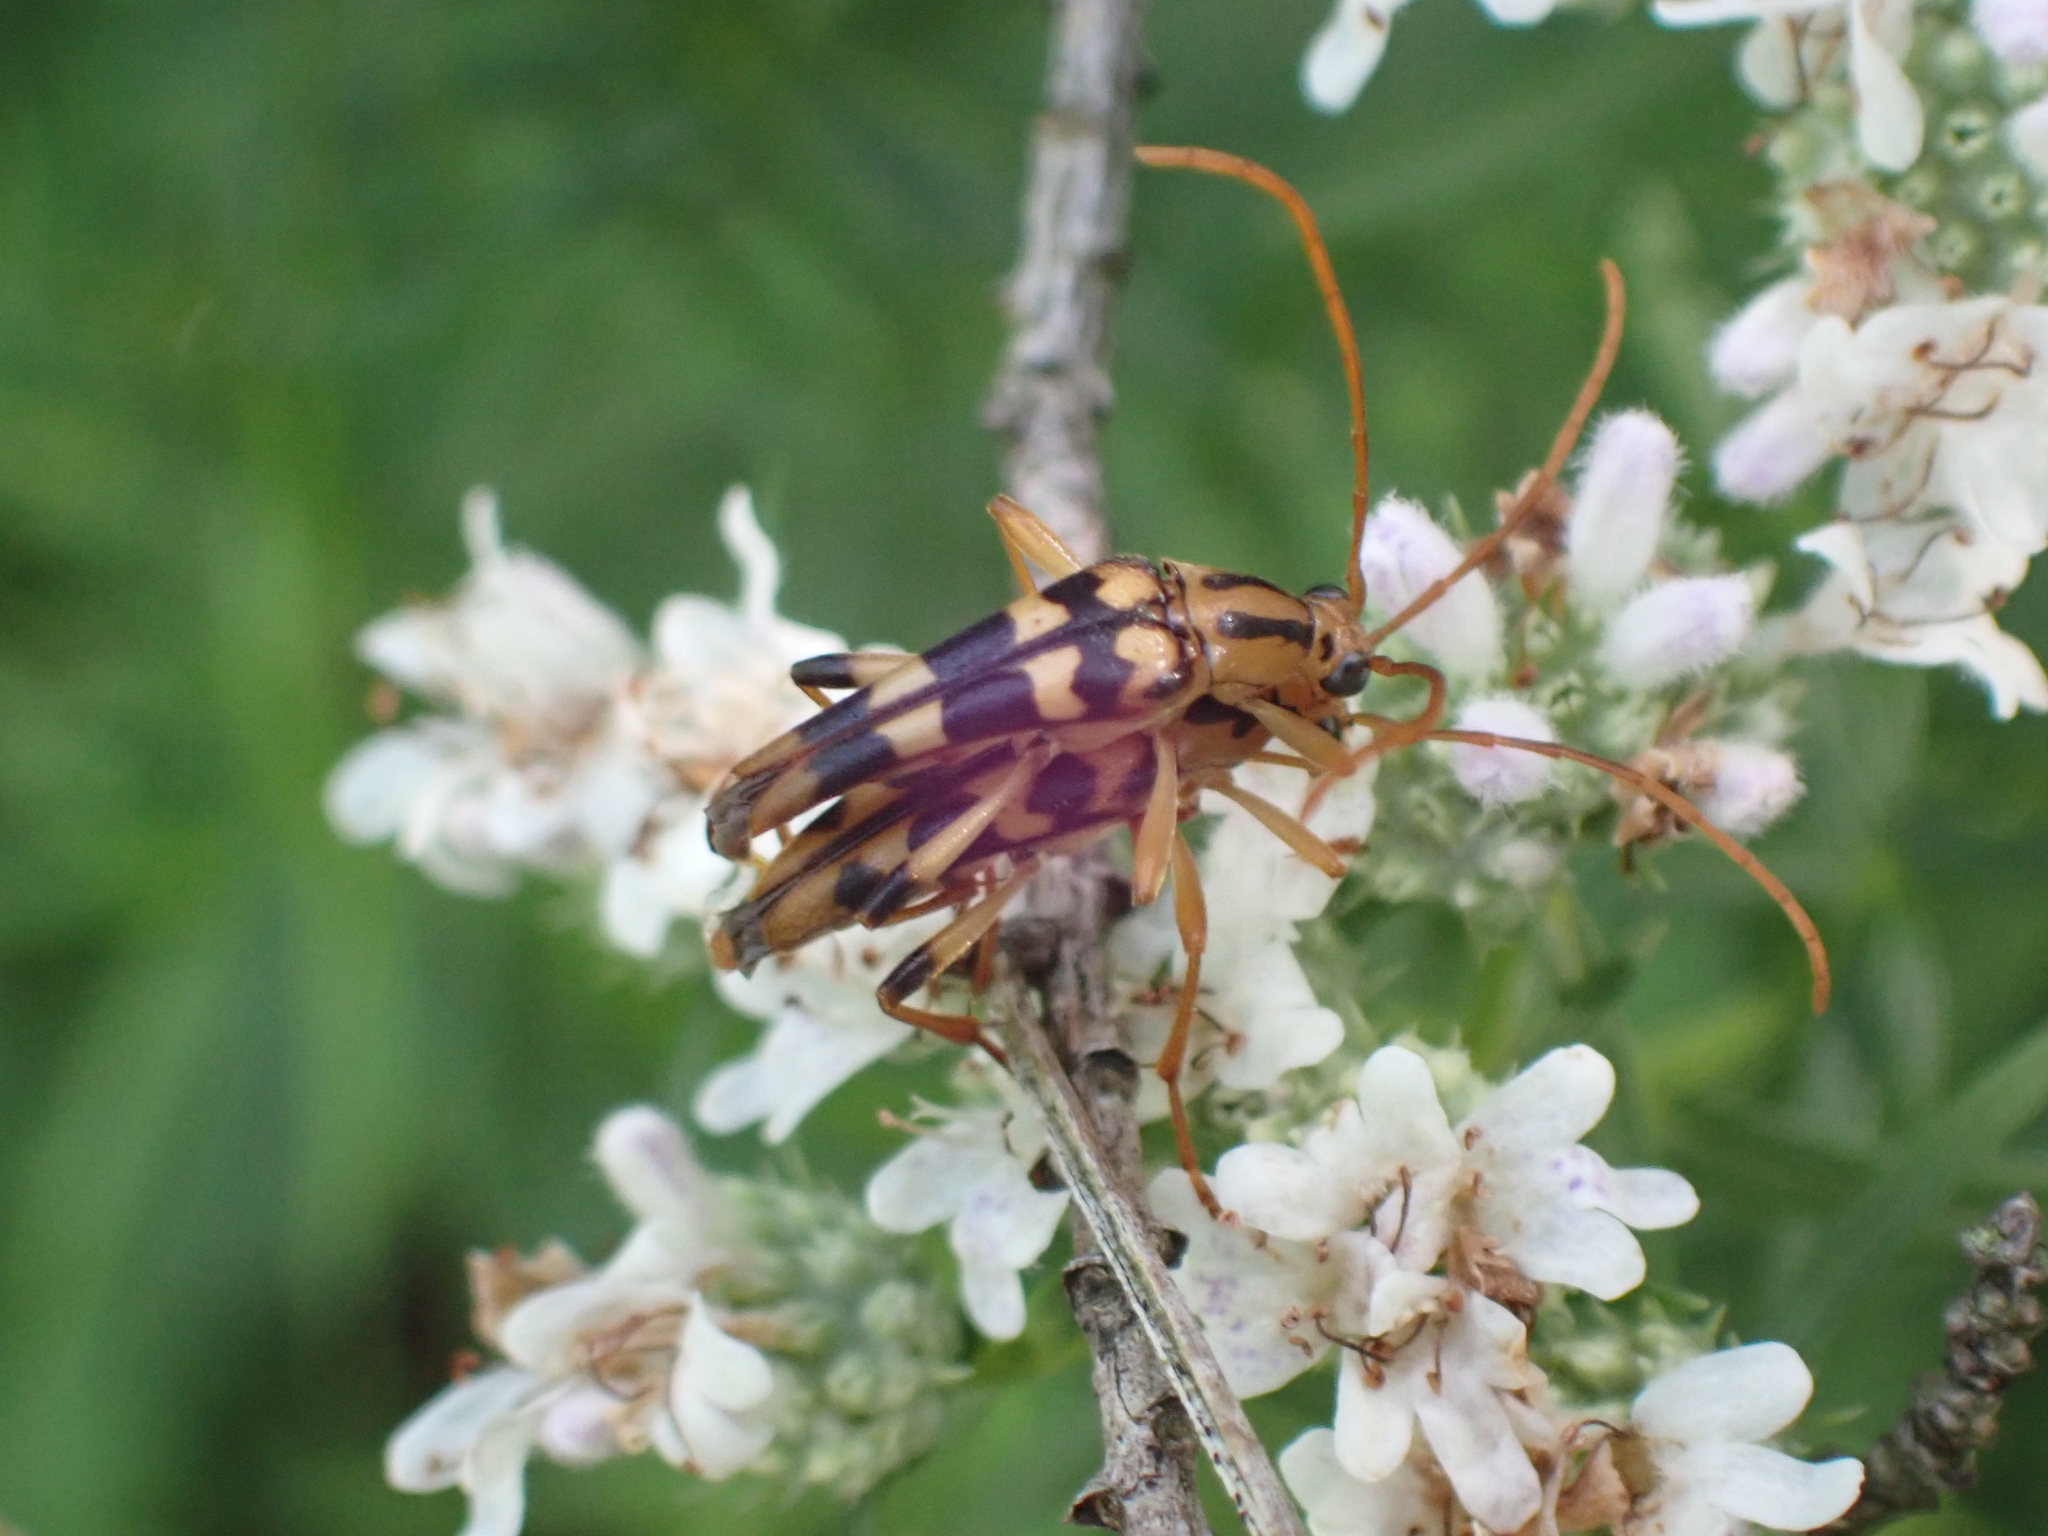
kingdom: Animalia
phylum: Arthropoda
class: Insecta
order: Coleoptera
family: Cerambycidae
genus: Strangalia
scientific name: Strangalia luteicornis
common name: Yellow-horned flower longhorn beetle
